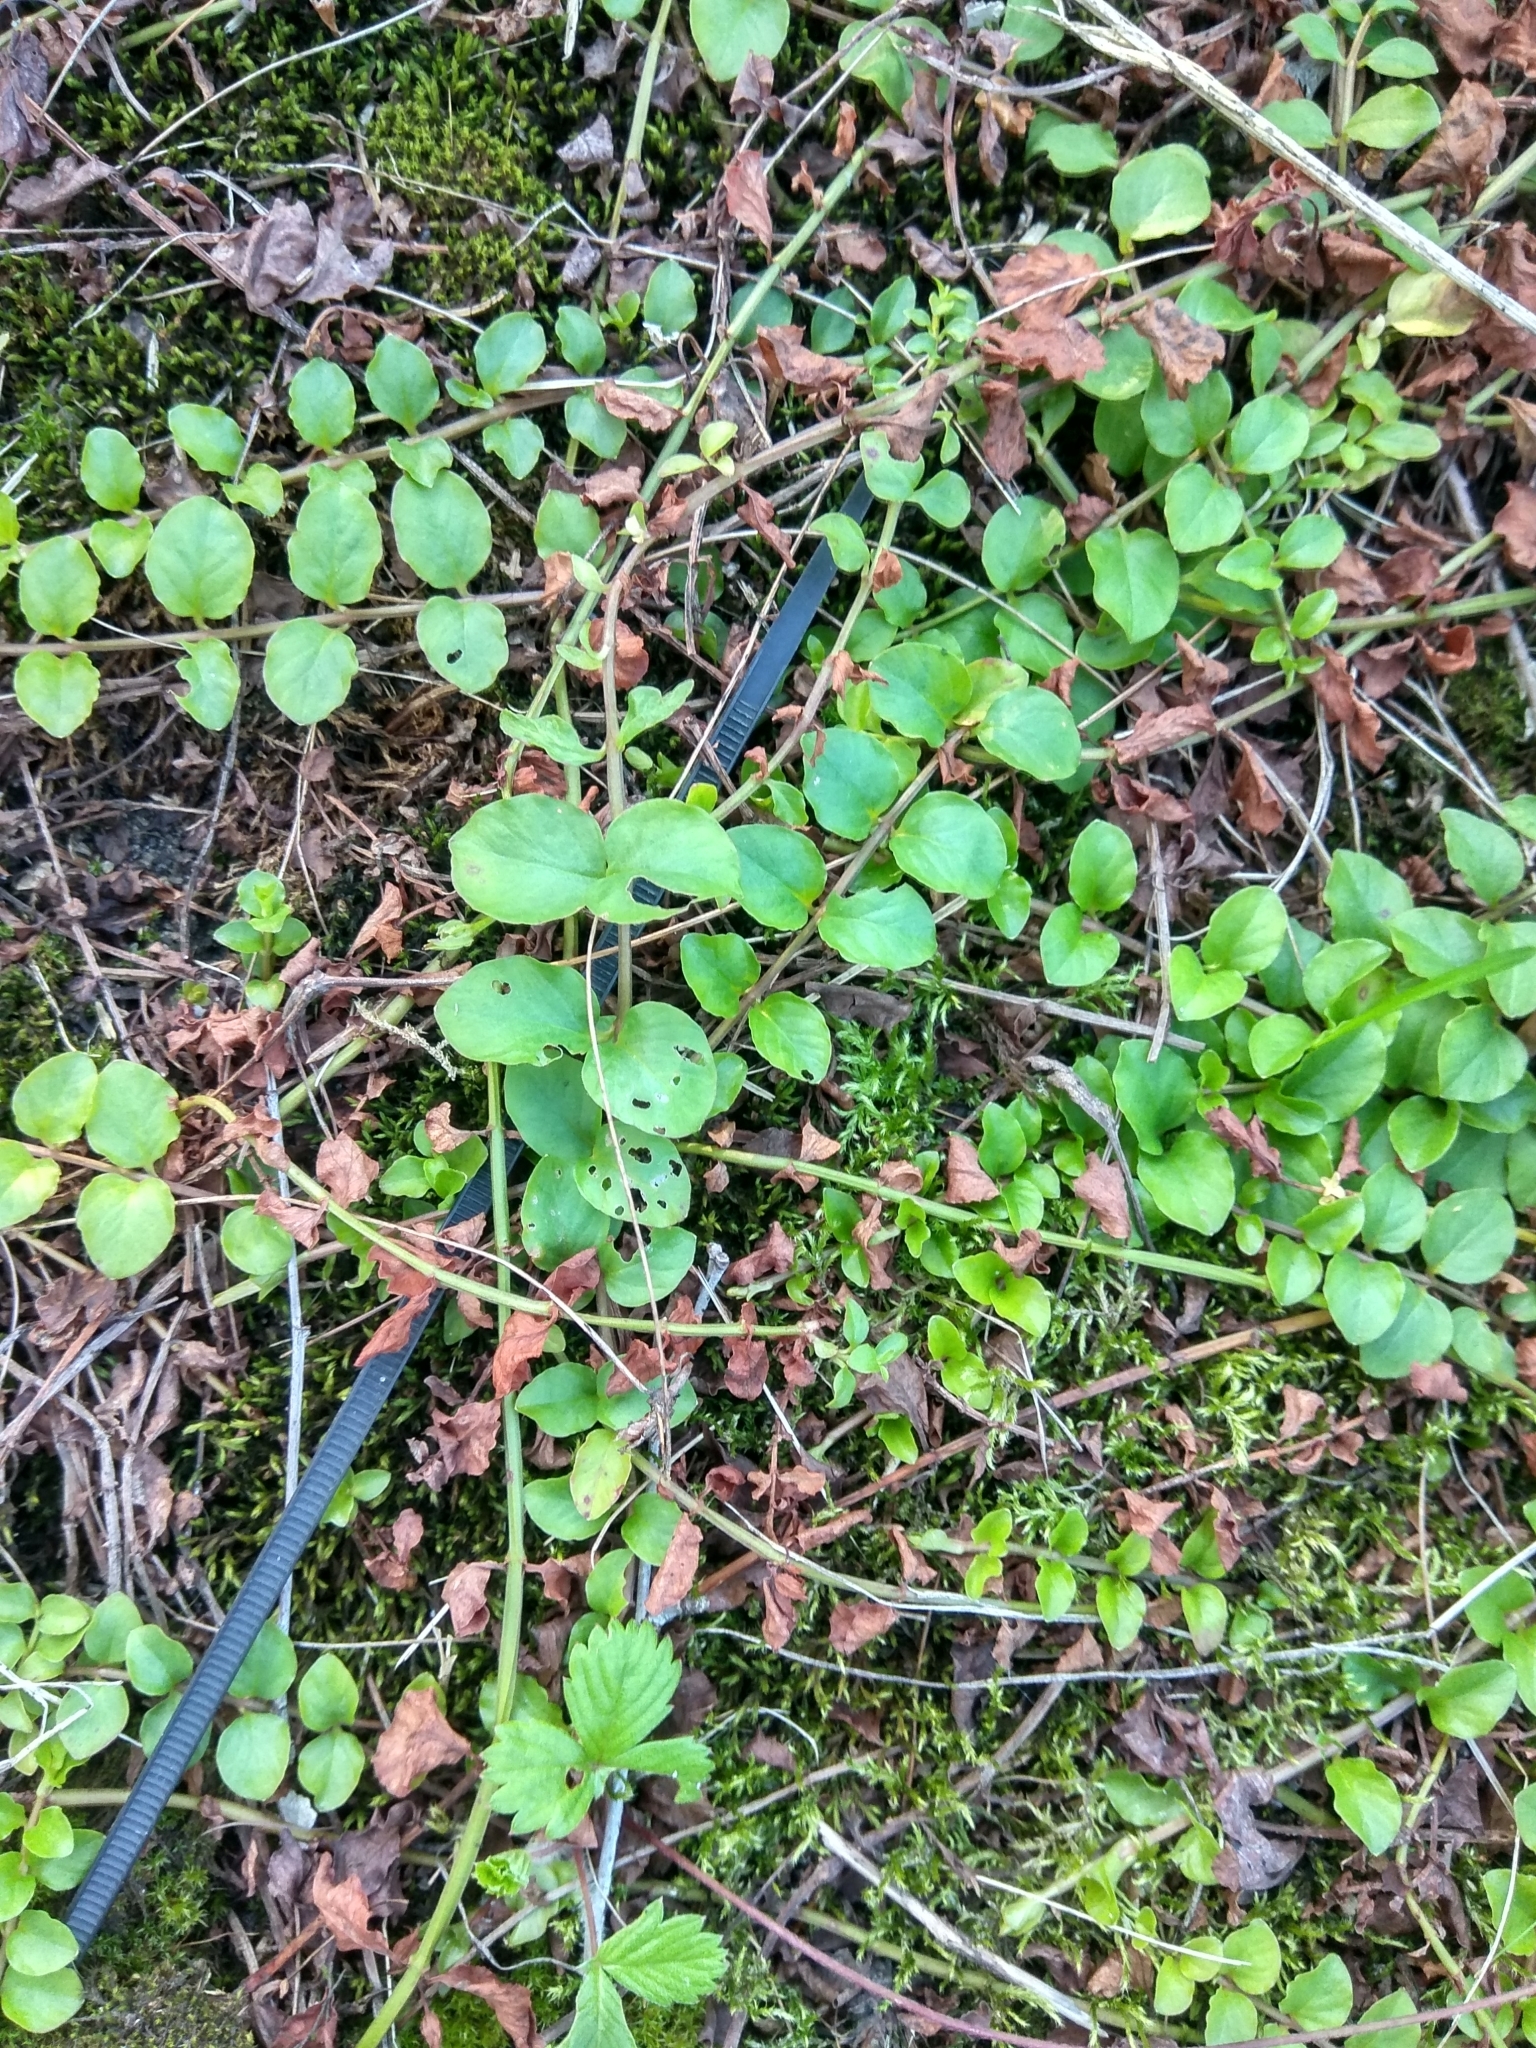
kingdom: Plantae
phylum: Tracheophyta
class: Magnoliopsida
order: Ericales
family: Primulaceae
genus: Lysimachia
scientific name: Lysimachia nummularia
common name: Moneywort
